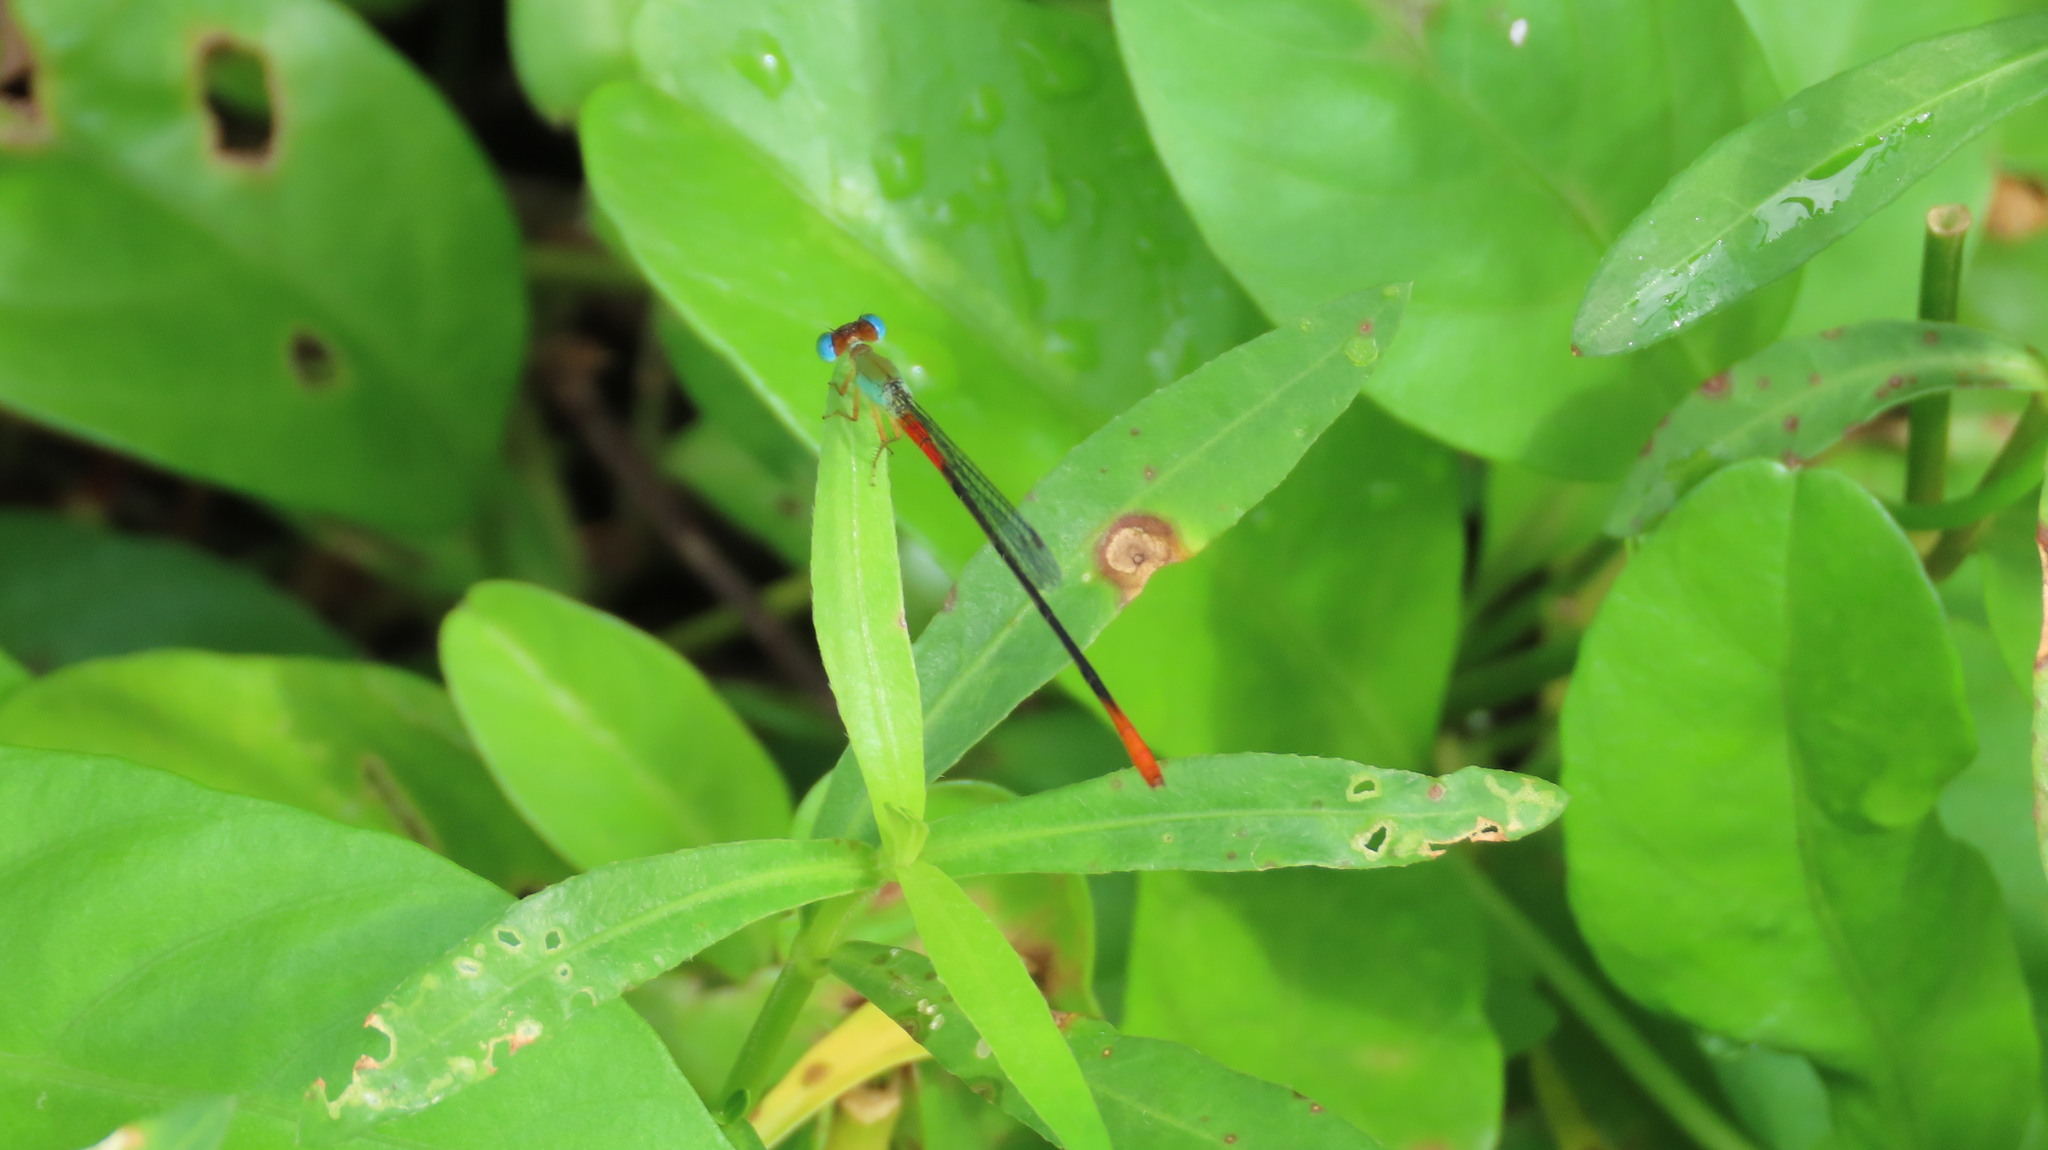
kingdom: Animalia
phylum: Arthropoda
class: Insecta
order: Odonata
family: Coenagrionidae
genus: Ceriagrion
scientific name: Ceriagrion cerinorubellum
